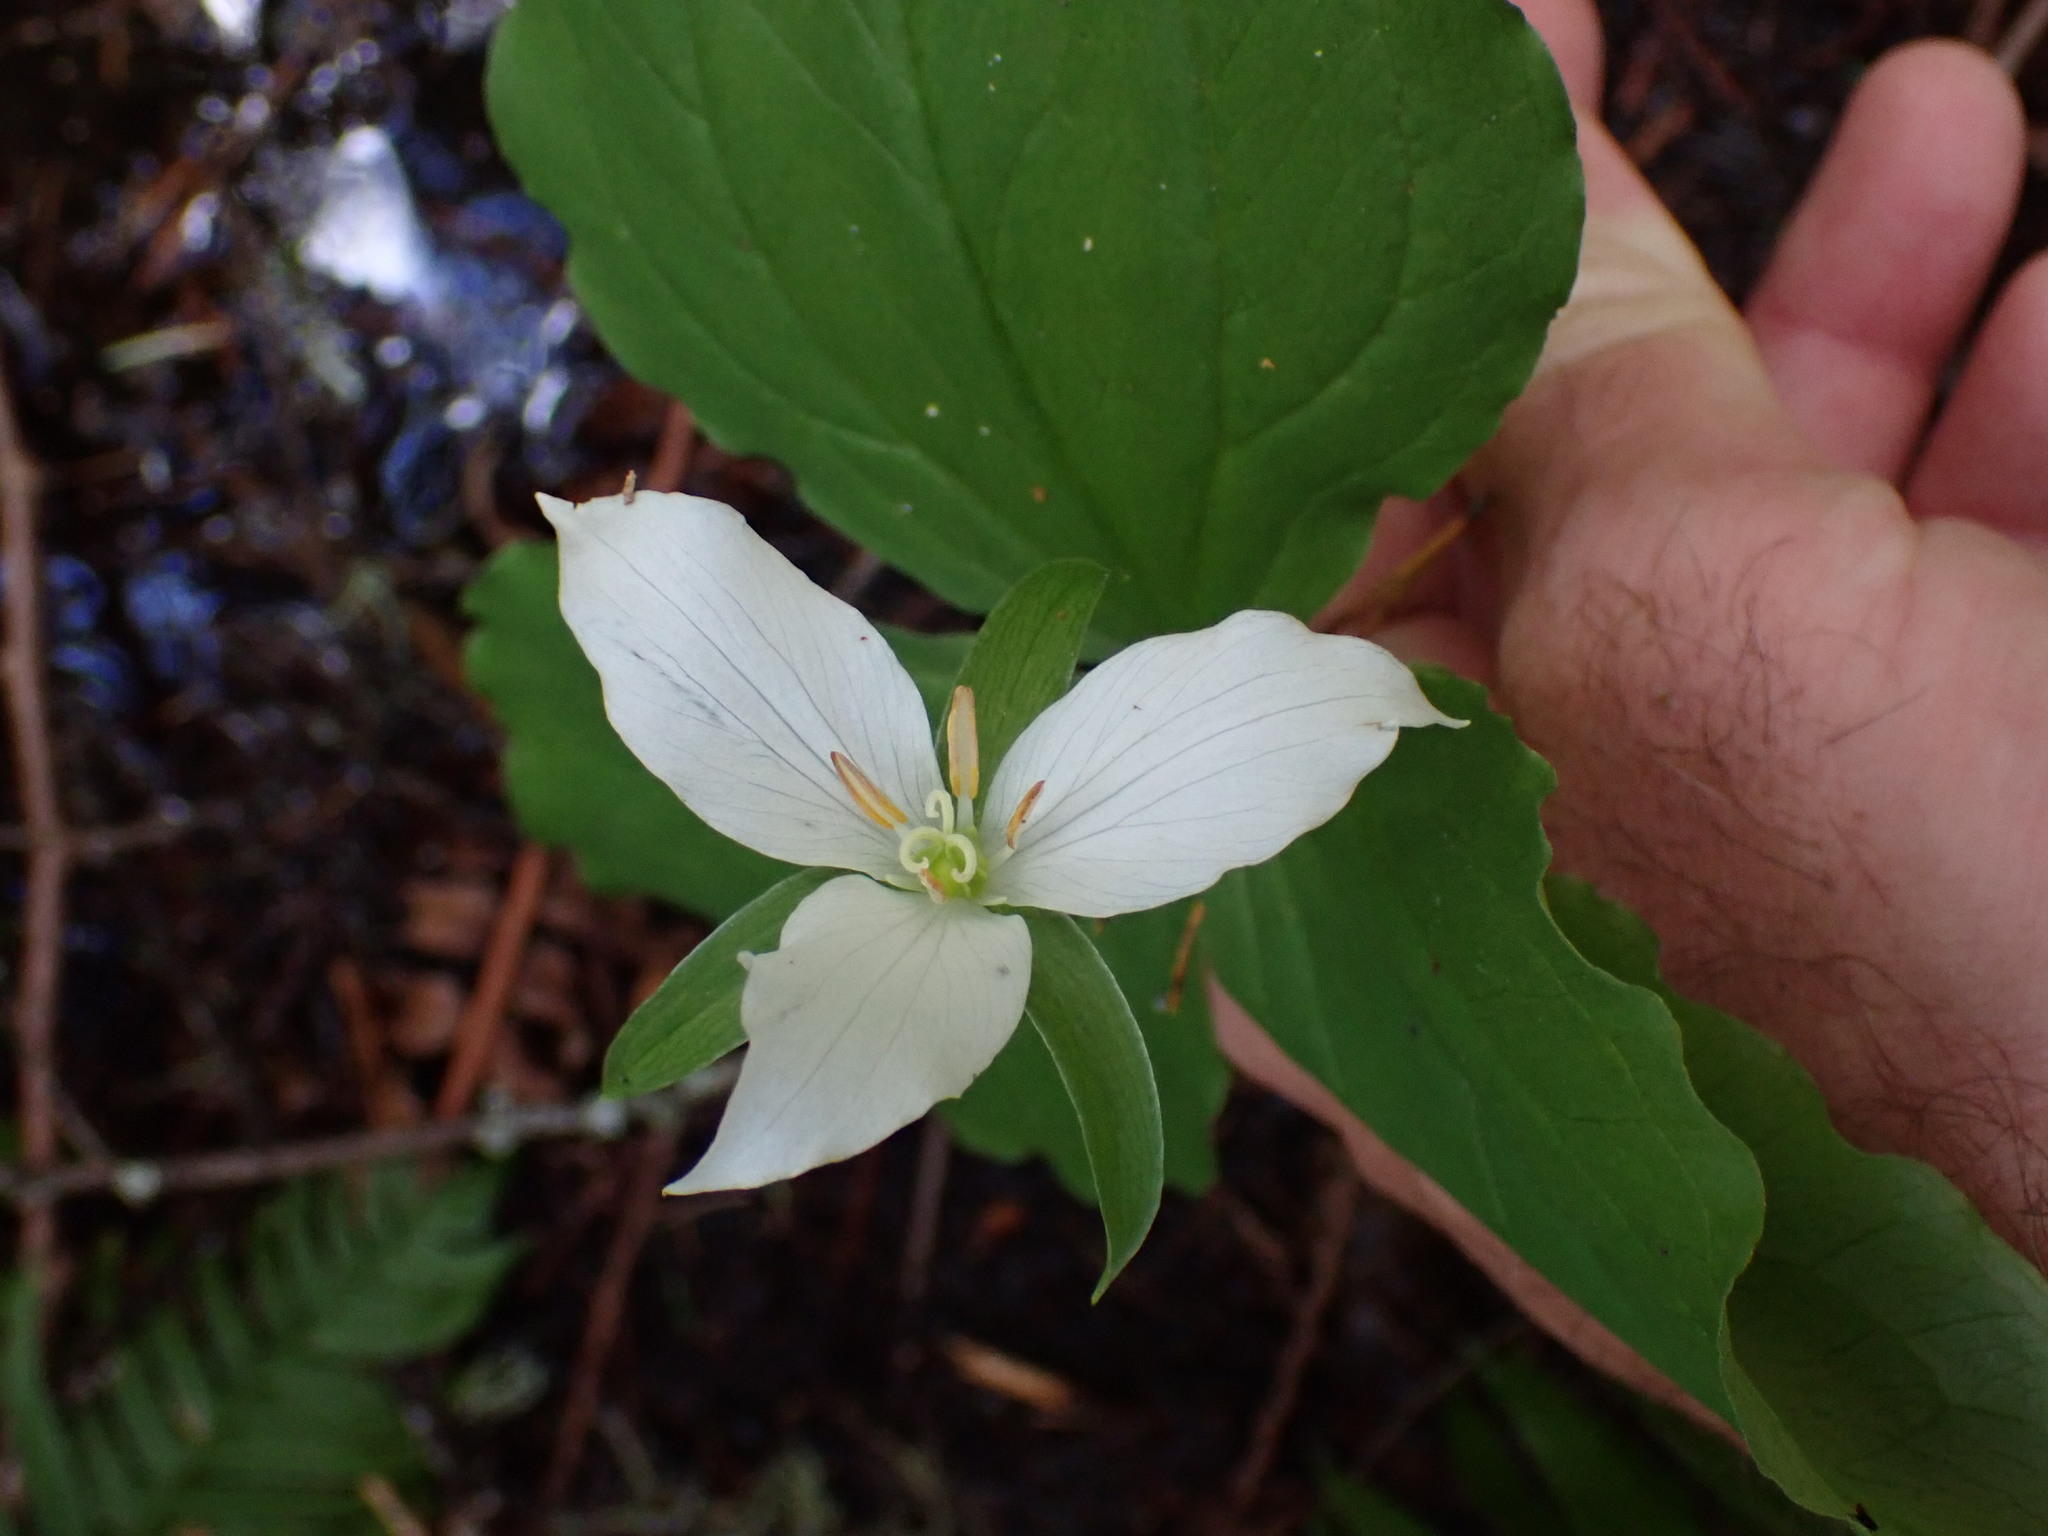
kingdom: Plantae
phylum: Tracheophyta
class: Liliopsida
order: Liliales
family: Melanthiaceae
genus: Trillium
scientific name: Trillium ovatum
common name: Pacific trillium
